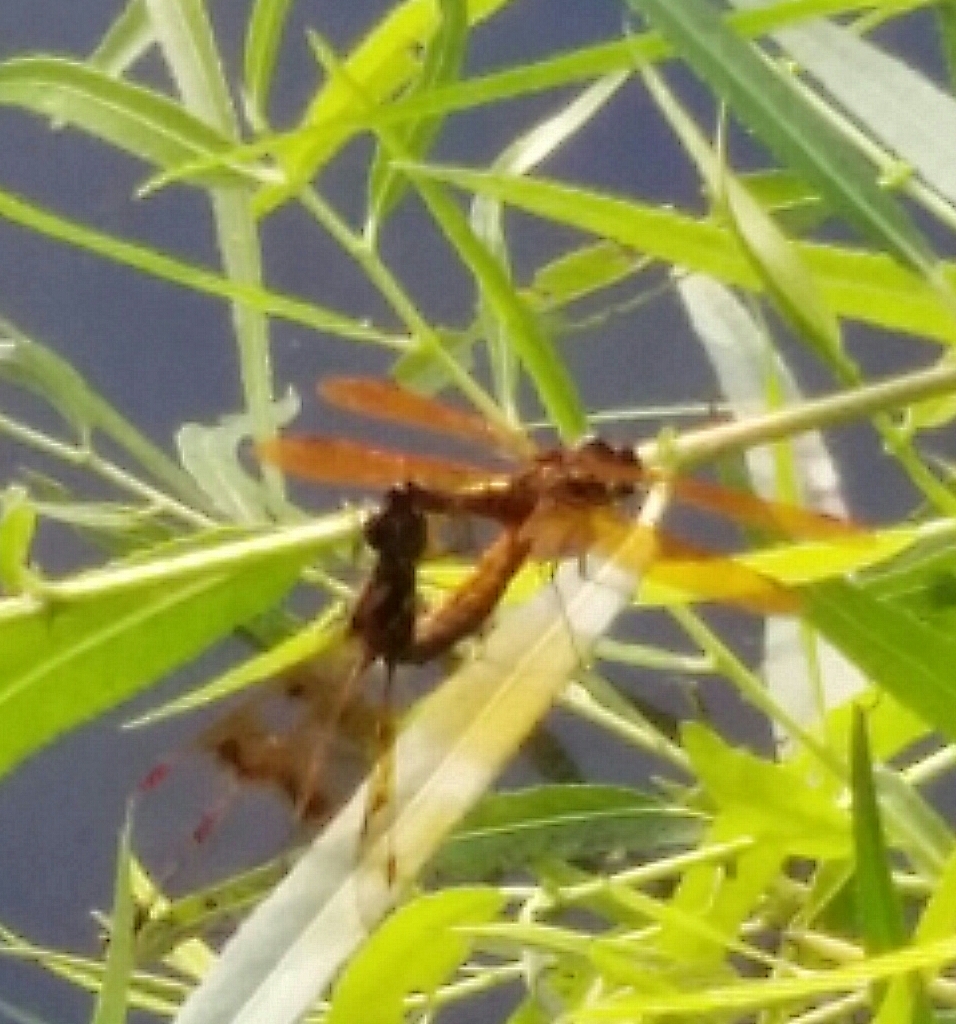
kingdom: Animalia
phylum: Arthropoda
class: Insecta
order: Odonata
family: Libellulidae
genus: Perithemis
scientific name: Perithemis tenera
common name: Eastern amberwing
